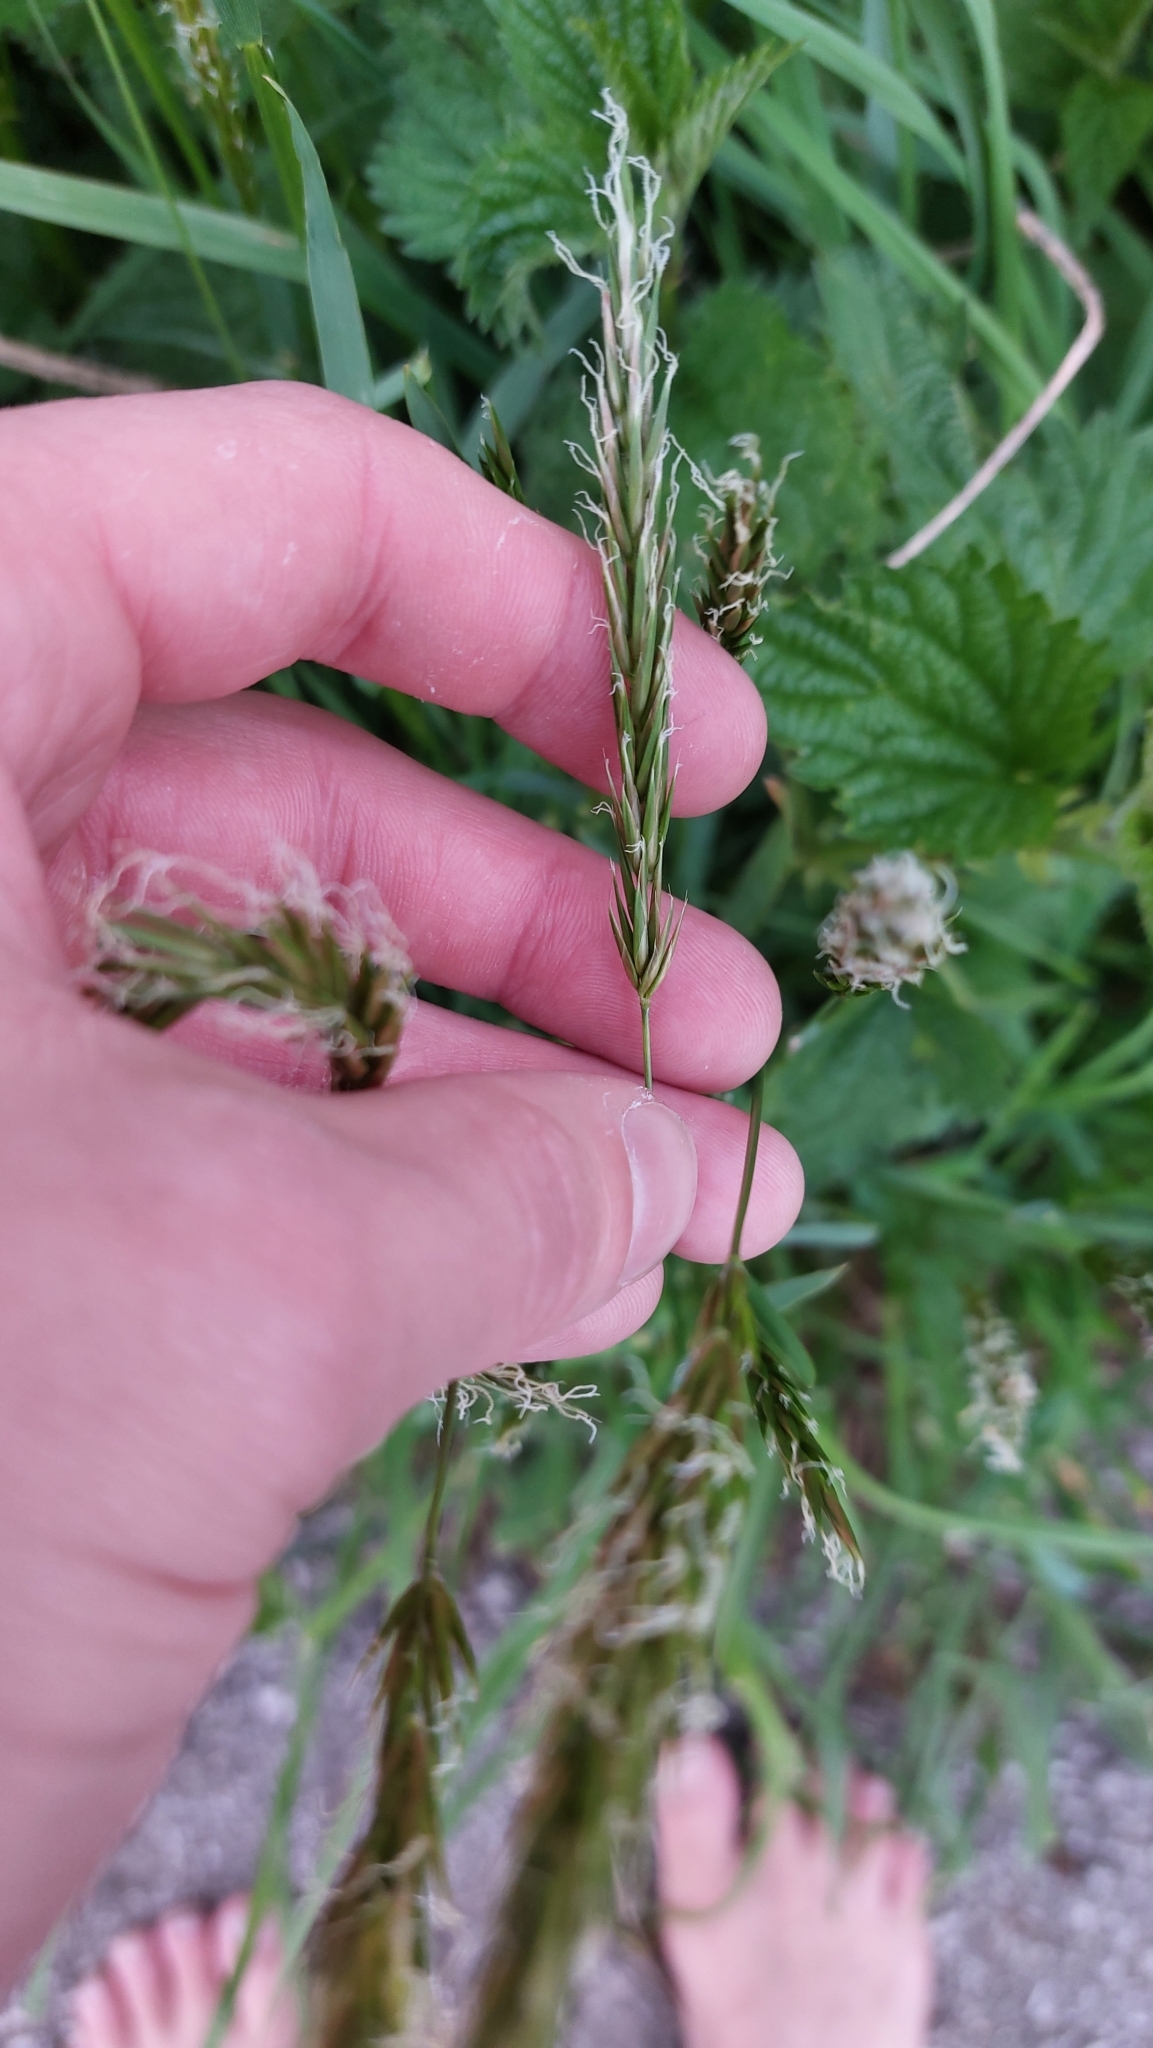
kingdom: Plantae
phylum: Tracheophyta
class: Liliopsida
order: Poales
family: Poaceae
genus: Anthoxanthum
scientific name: Anthoxanthum odoratum
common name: Sweet vernalgrass
